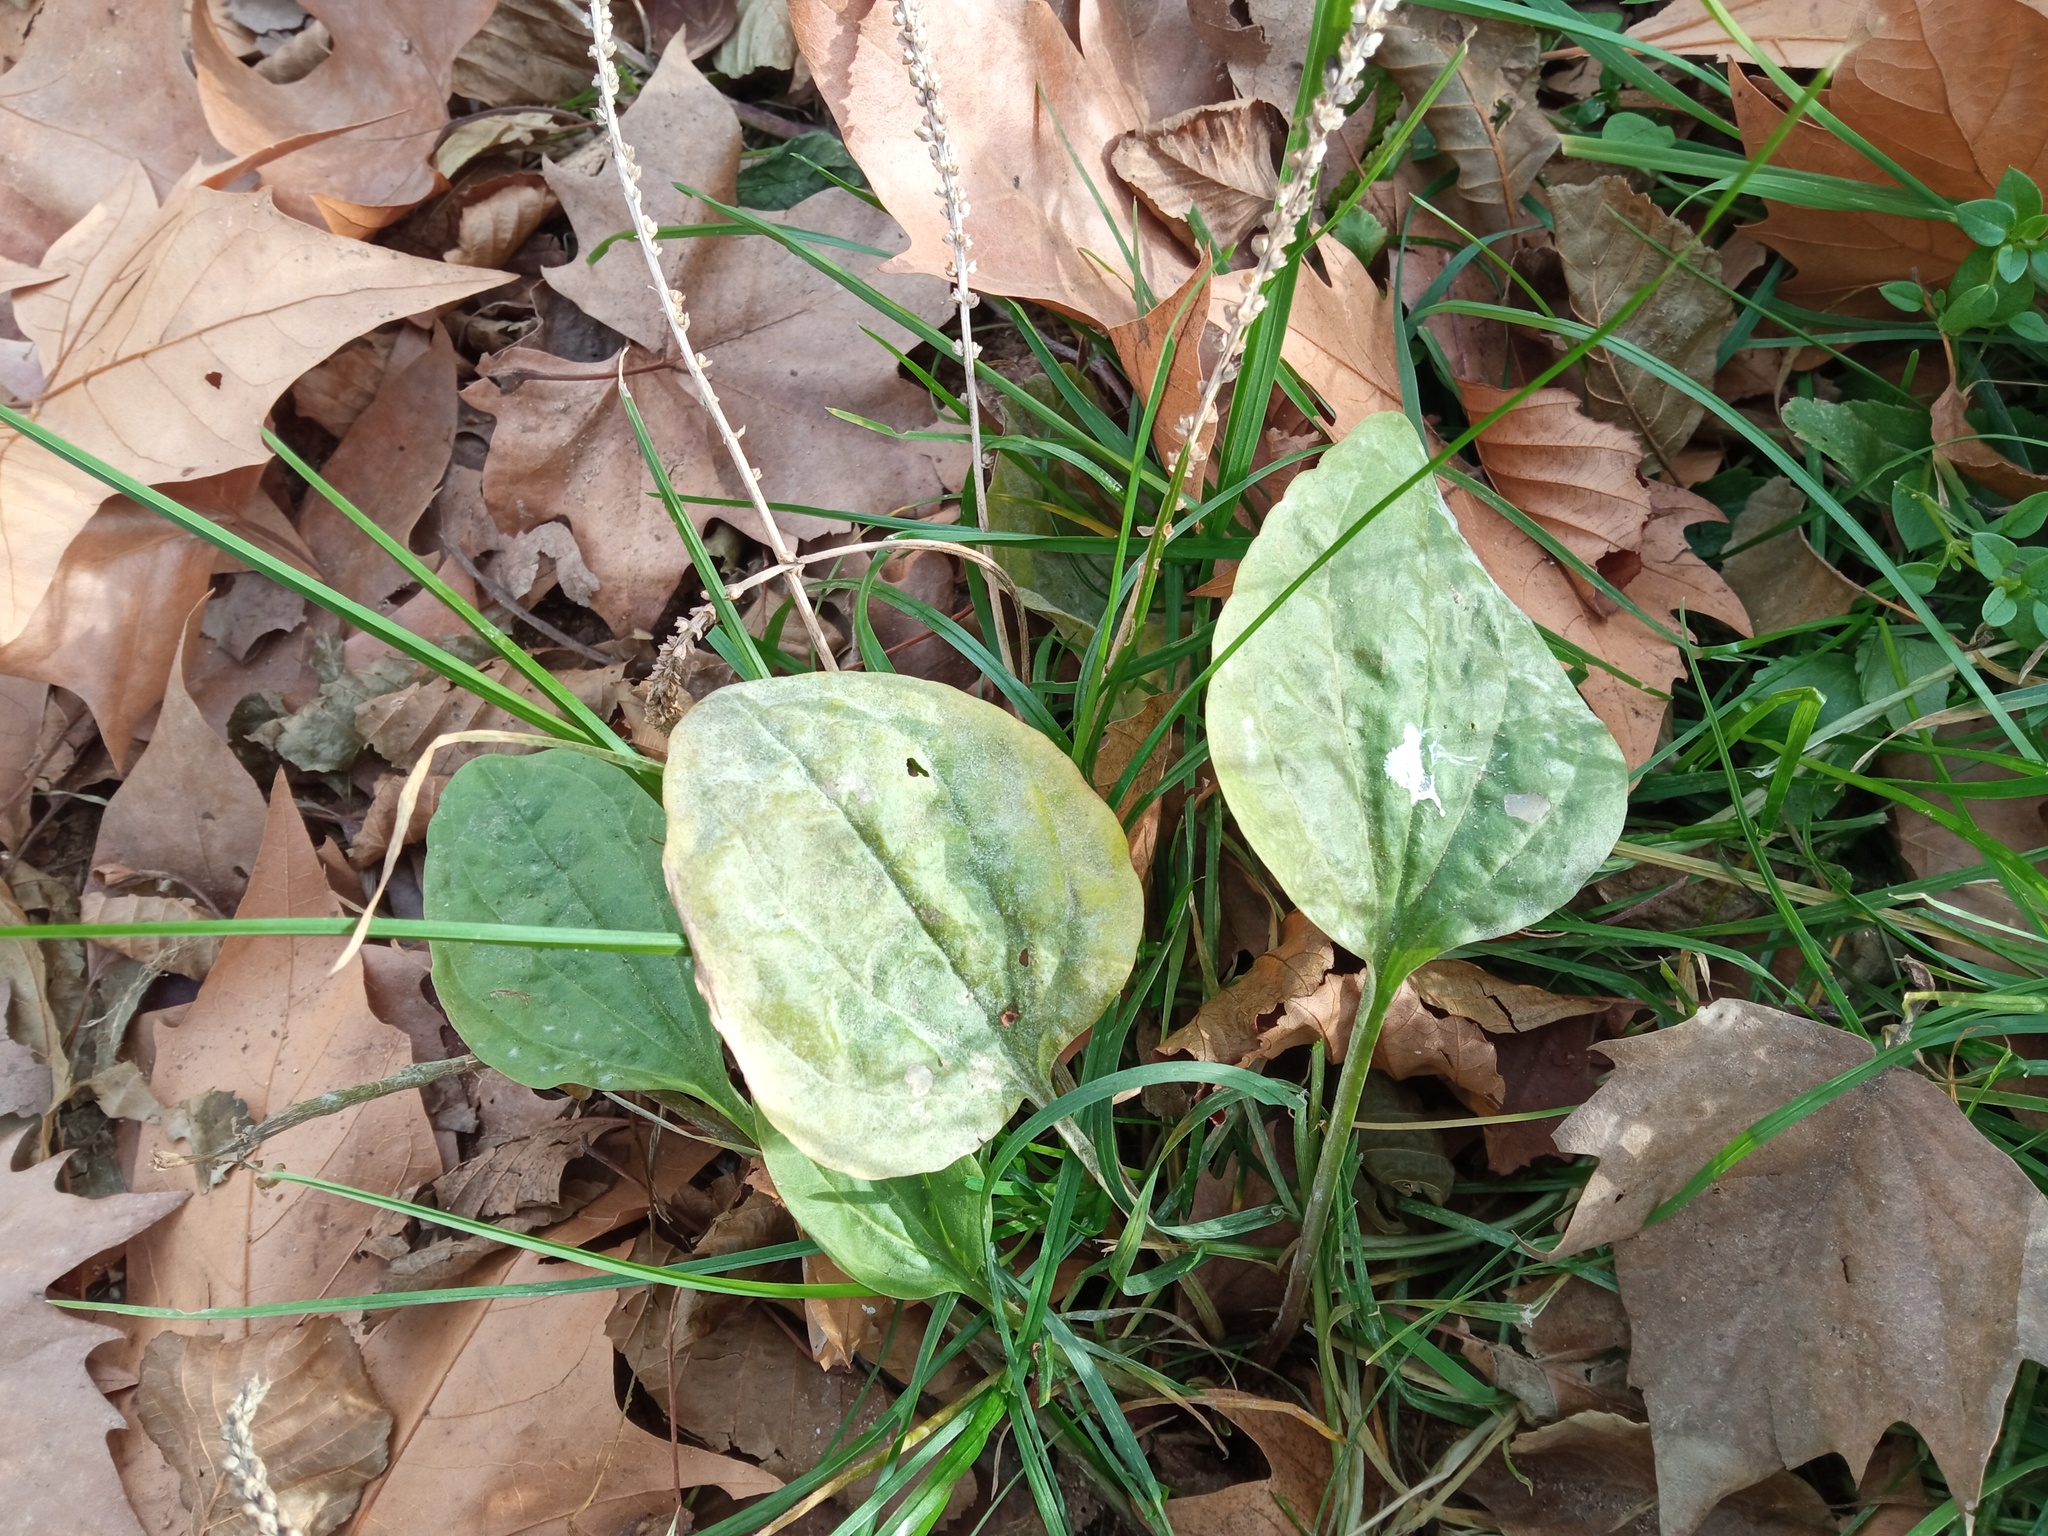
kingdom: Plantae
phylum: Tracheophyta
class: Magnoliopsida
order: Lamiales
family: Plantaginaceae
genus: Plantago
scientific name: Plantago major
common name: Common plantain
